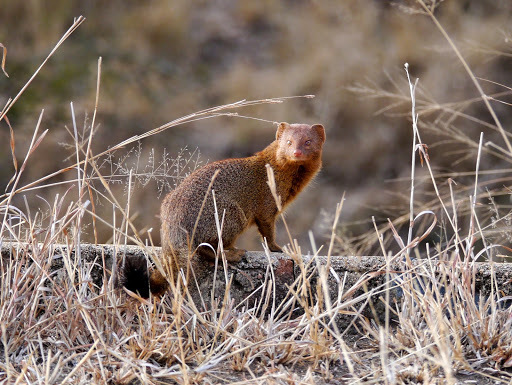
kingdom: Animalia
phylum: Chordata
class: Mammalia
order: Carnivora
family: Herpestidae
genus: Galerella
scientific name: Galerella sanguinea
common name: Slender mongoose
